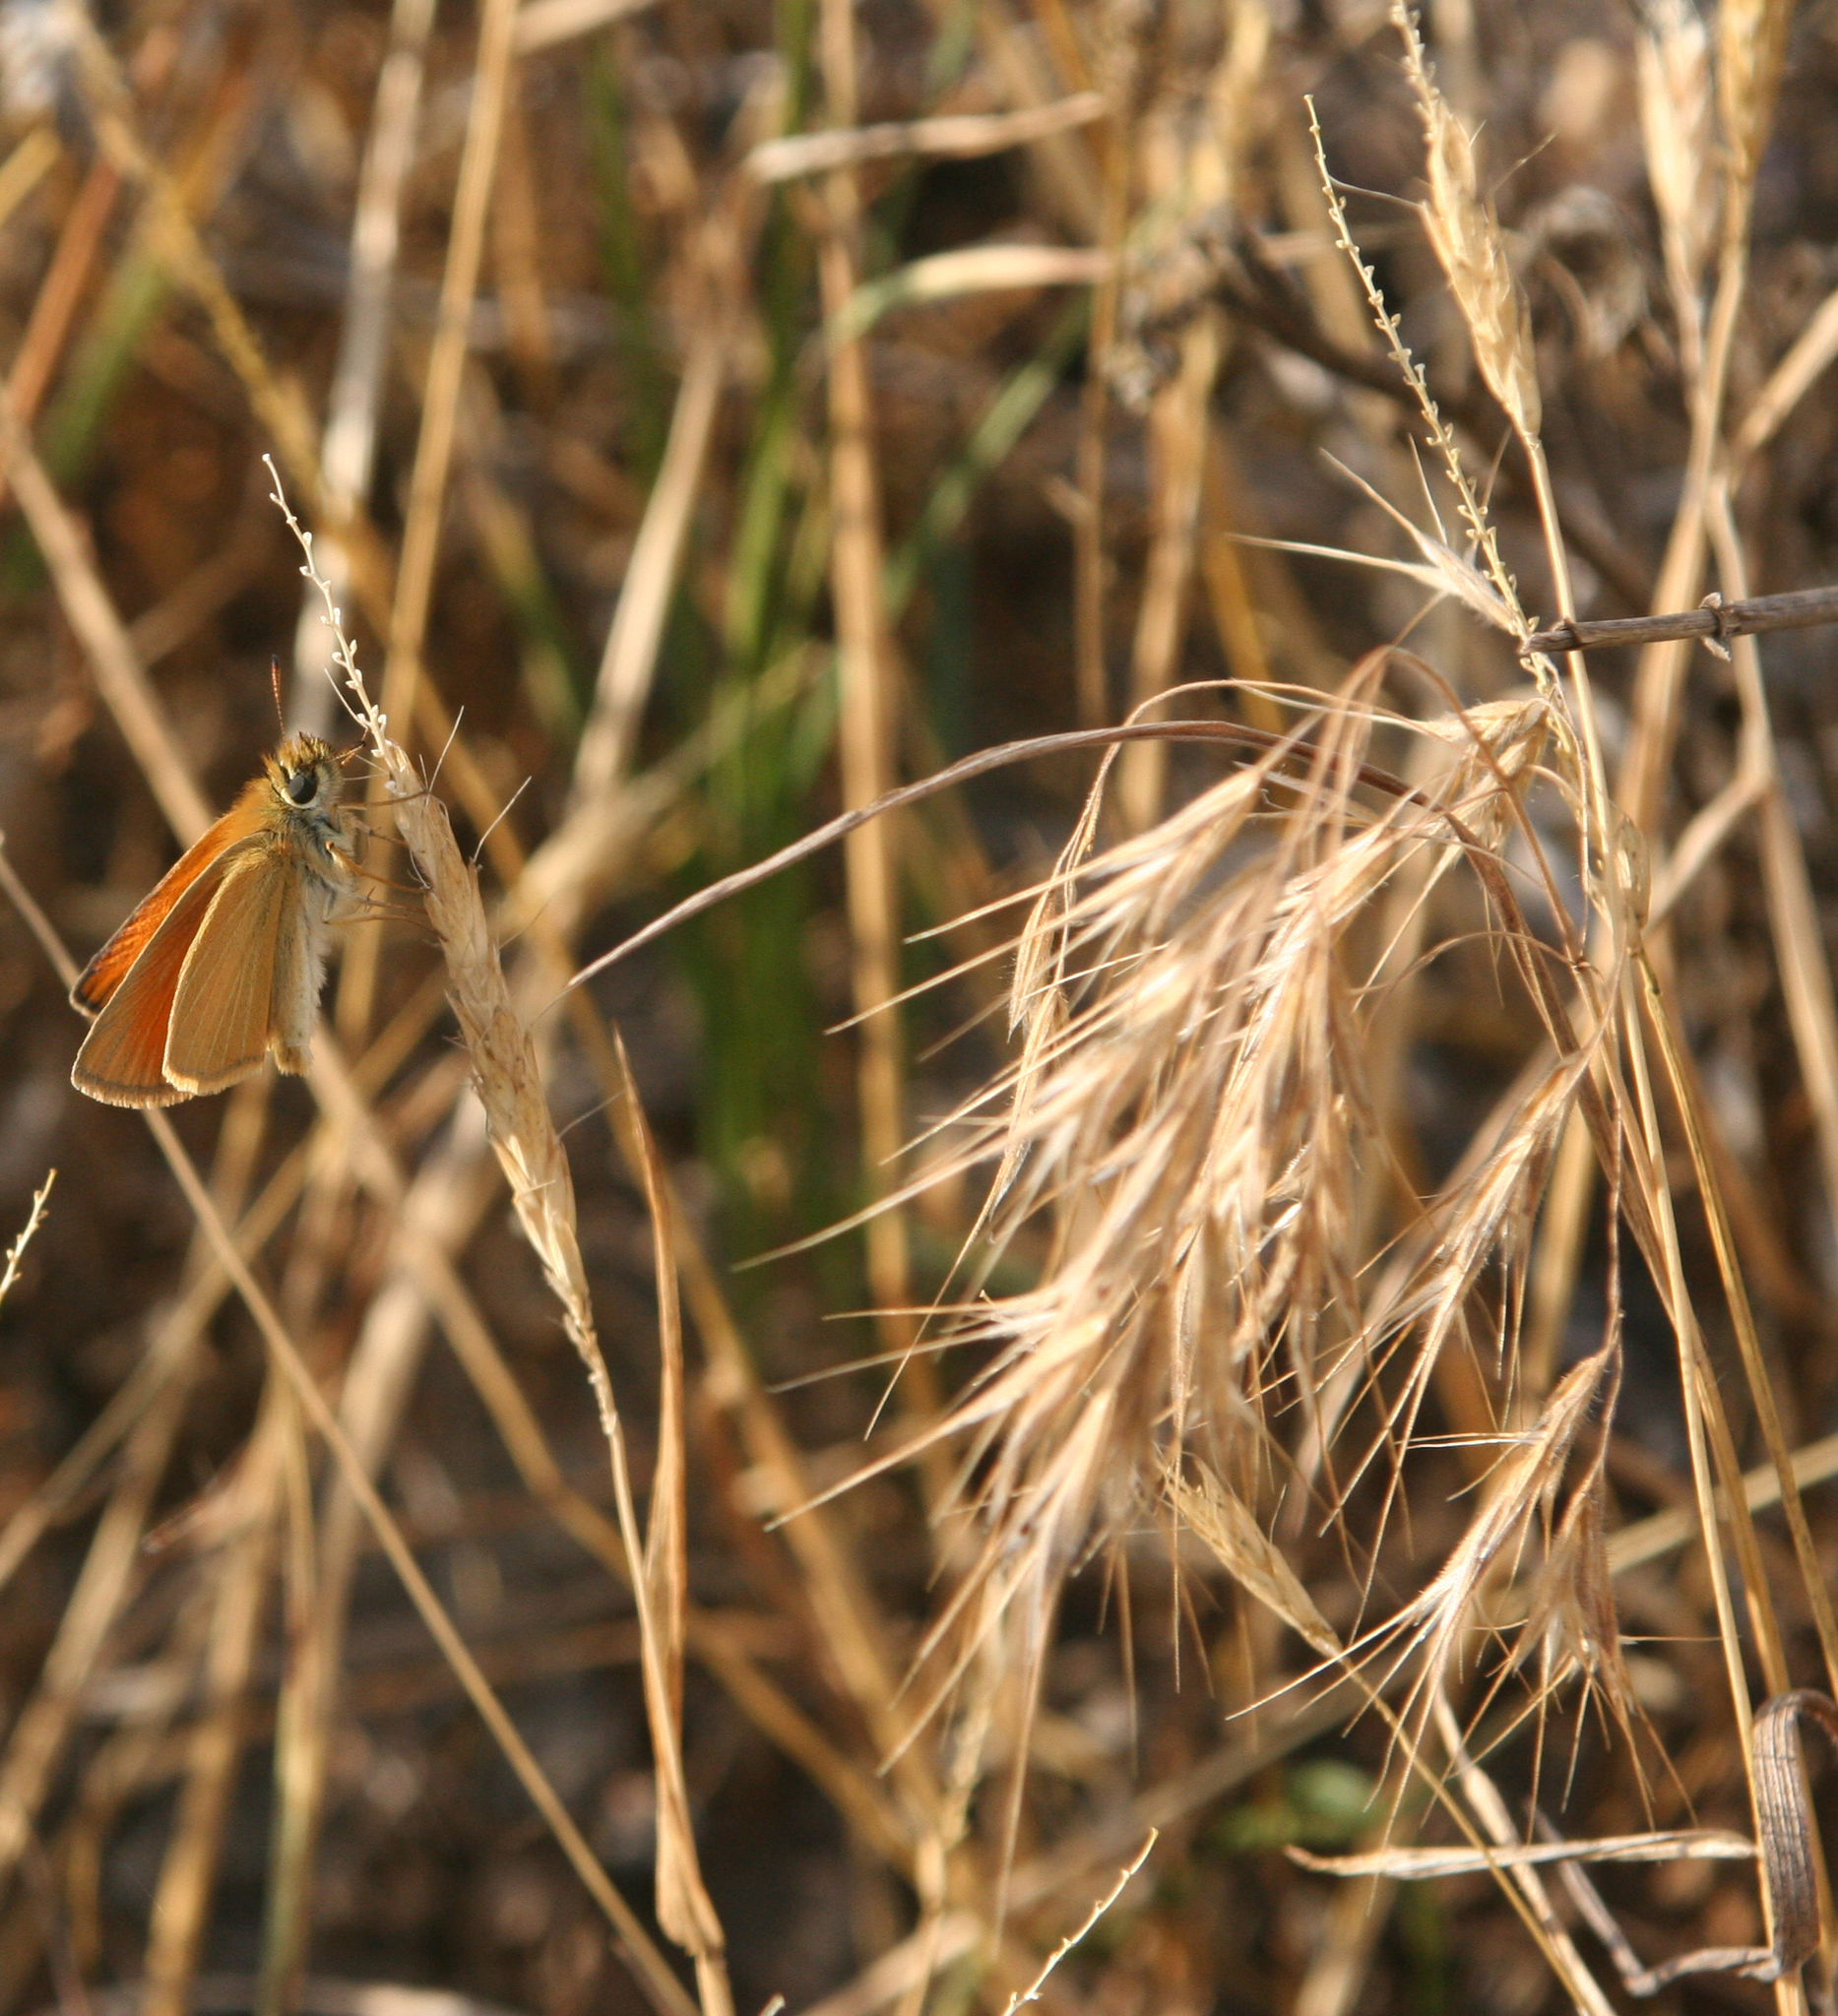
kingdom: Plantae
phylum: Tracheophyta
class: Liliopsida
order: Poales
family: Poaceae
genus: Bromus
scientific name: Bromus tectorum
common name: Cheatgrass
